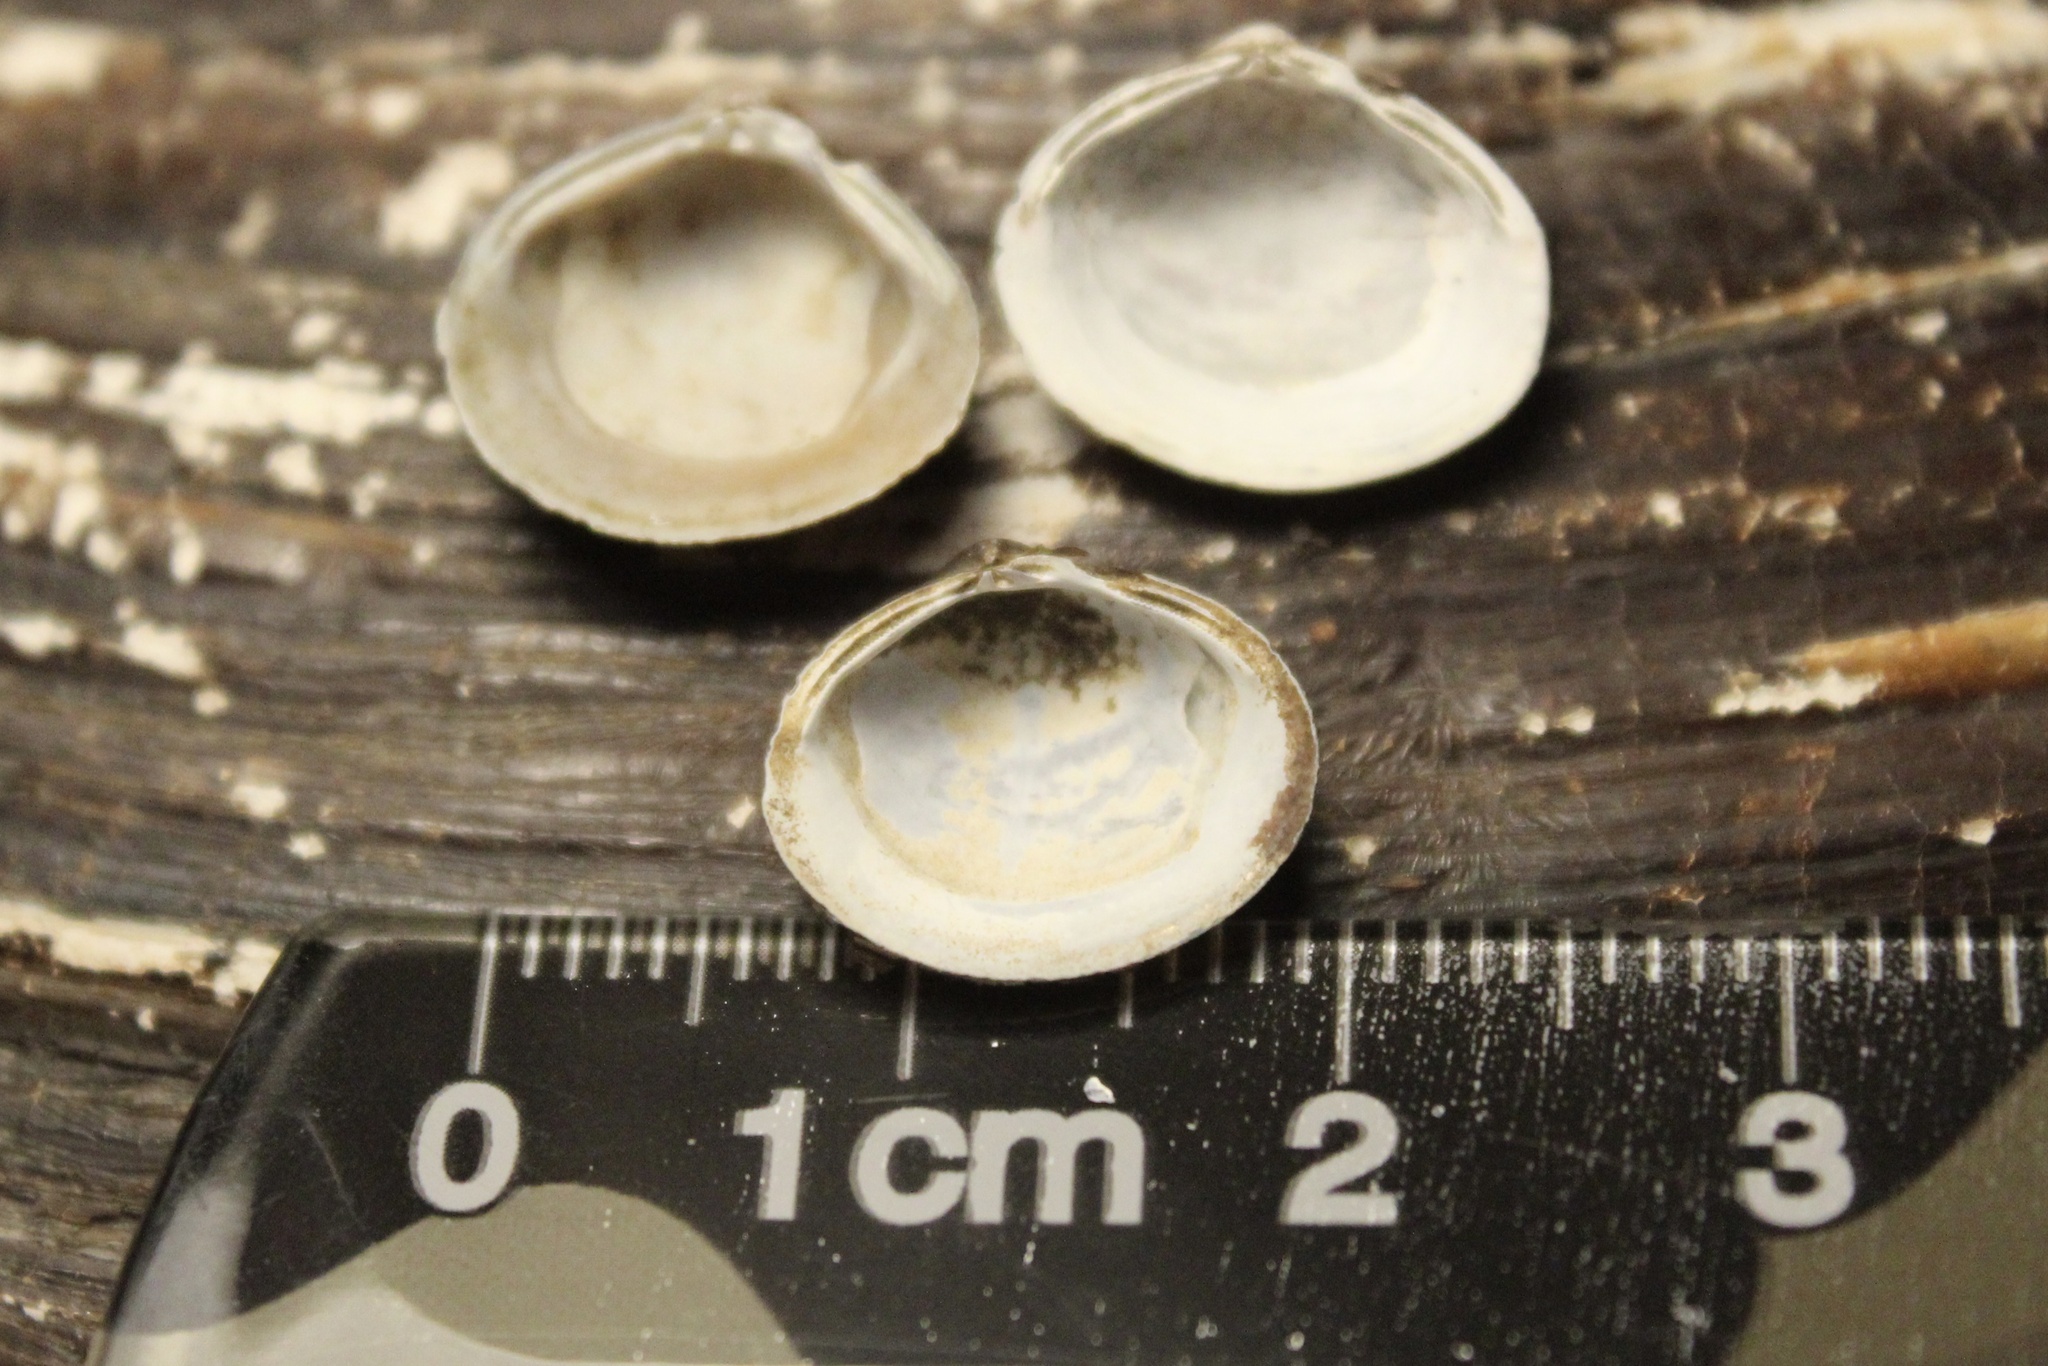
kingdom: Animalia
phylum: Mollusca
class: Bivalvia
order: Venerida
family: Cyrenidae
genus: Corbicula
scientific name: Corbicula fluminea
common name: Asian clam
